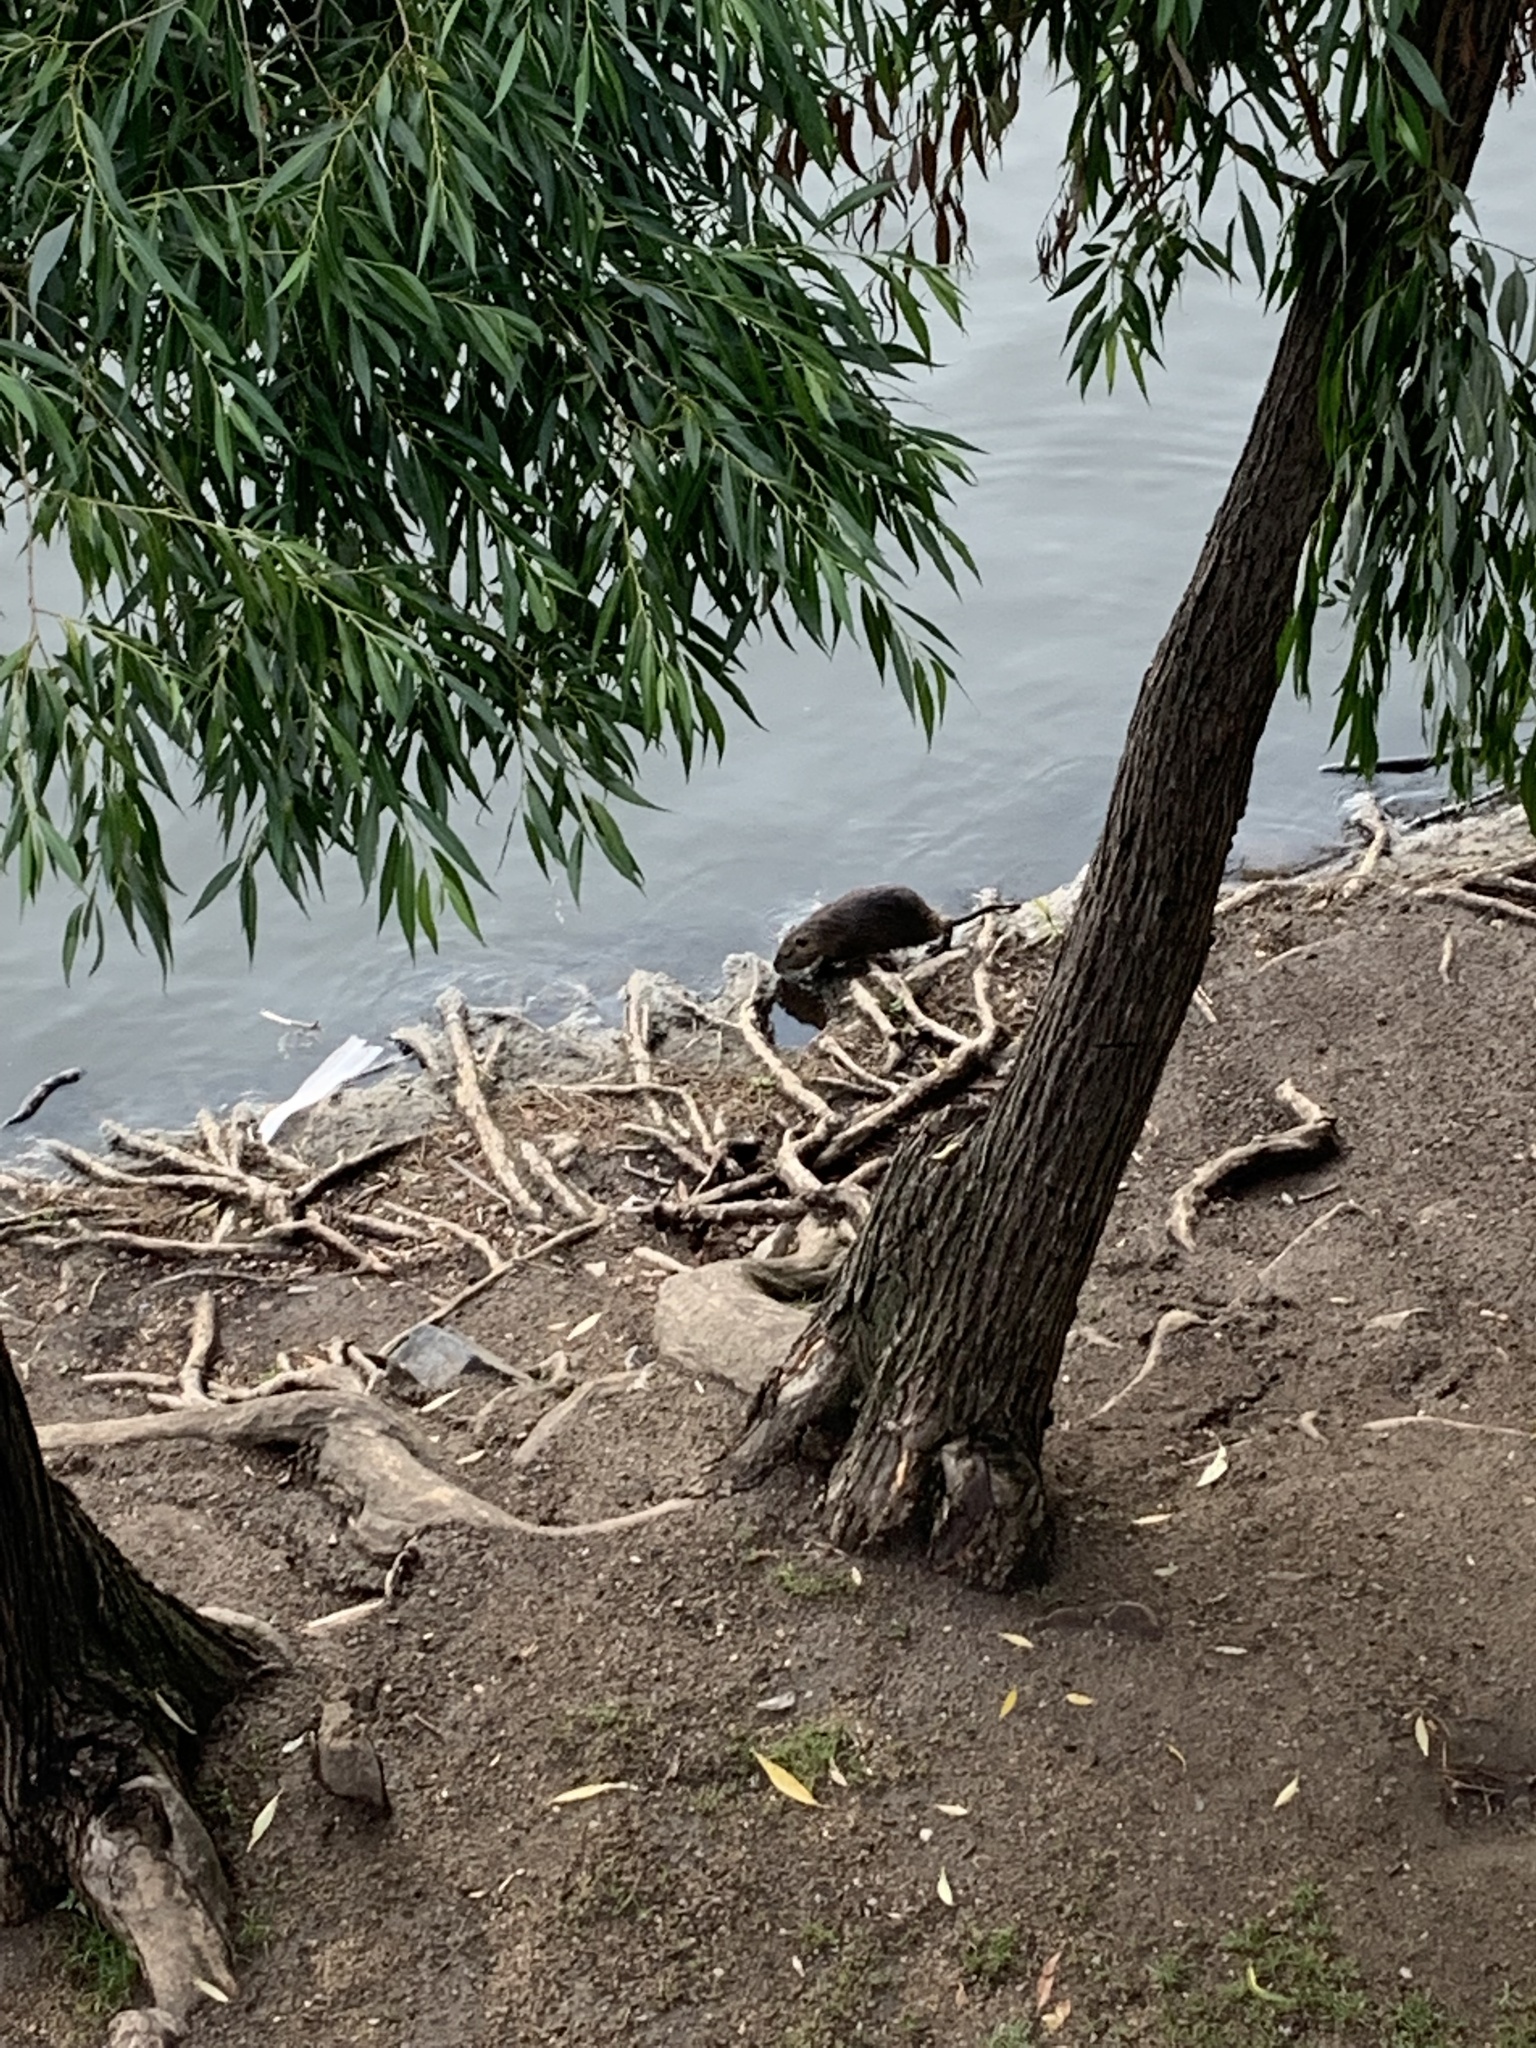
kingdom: Animalia
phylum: Chordata
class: Mammalia
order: Rodentia
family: Myocastoridae
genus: Myocastor
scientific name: Myocastor coypus
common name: Coypu
